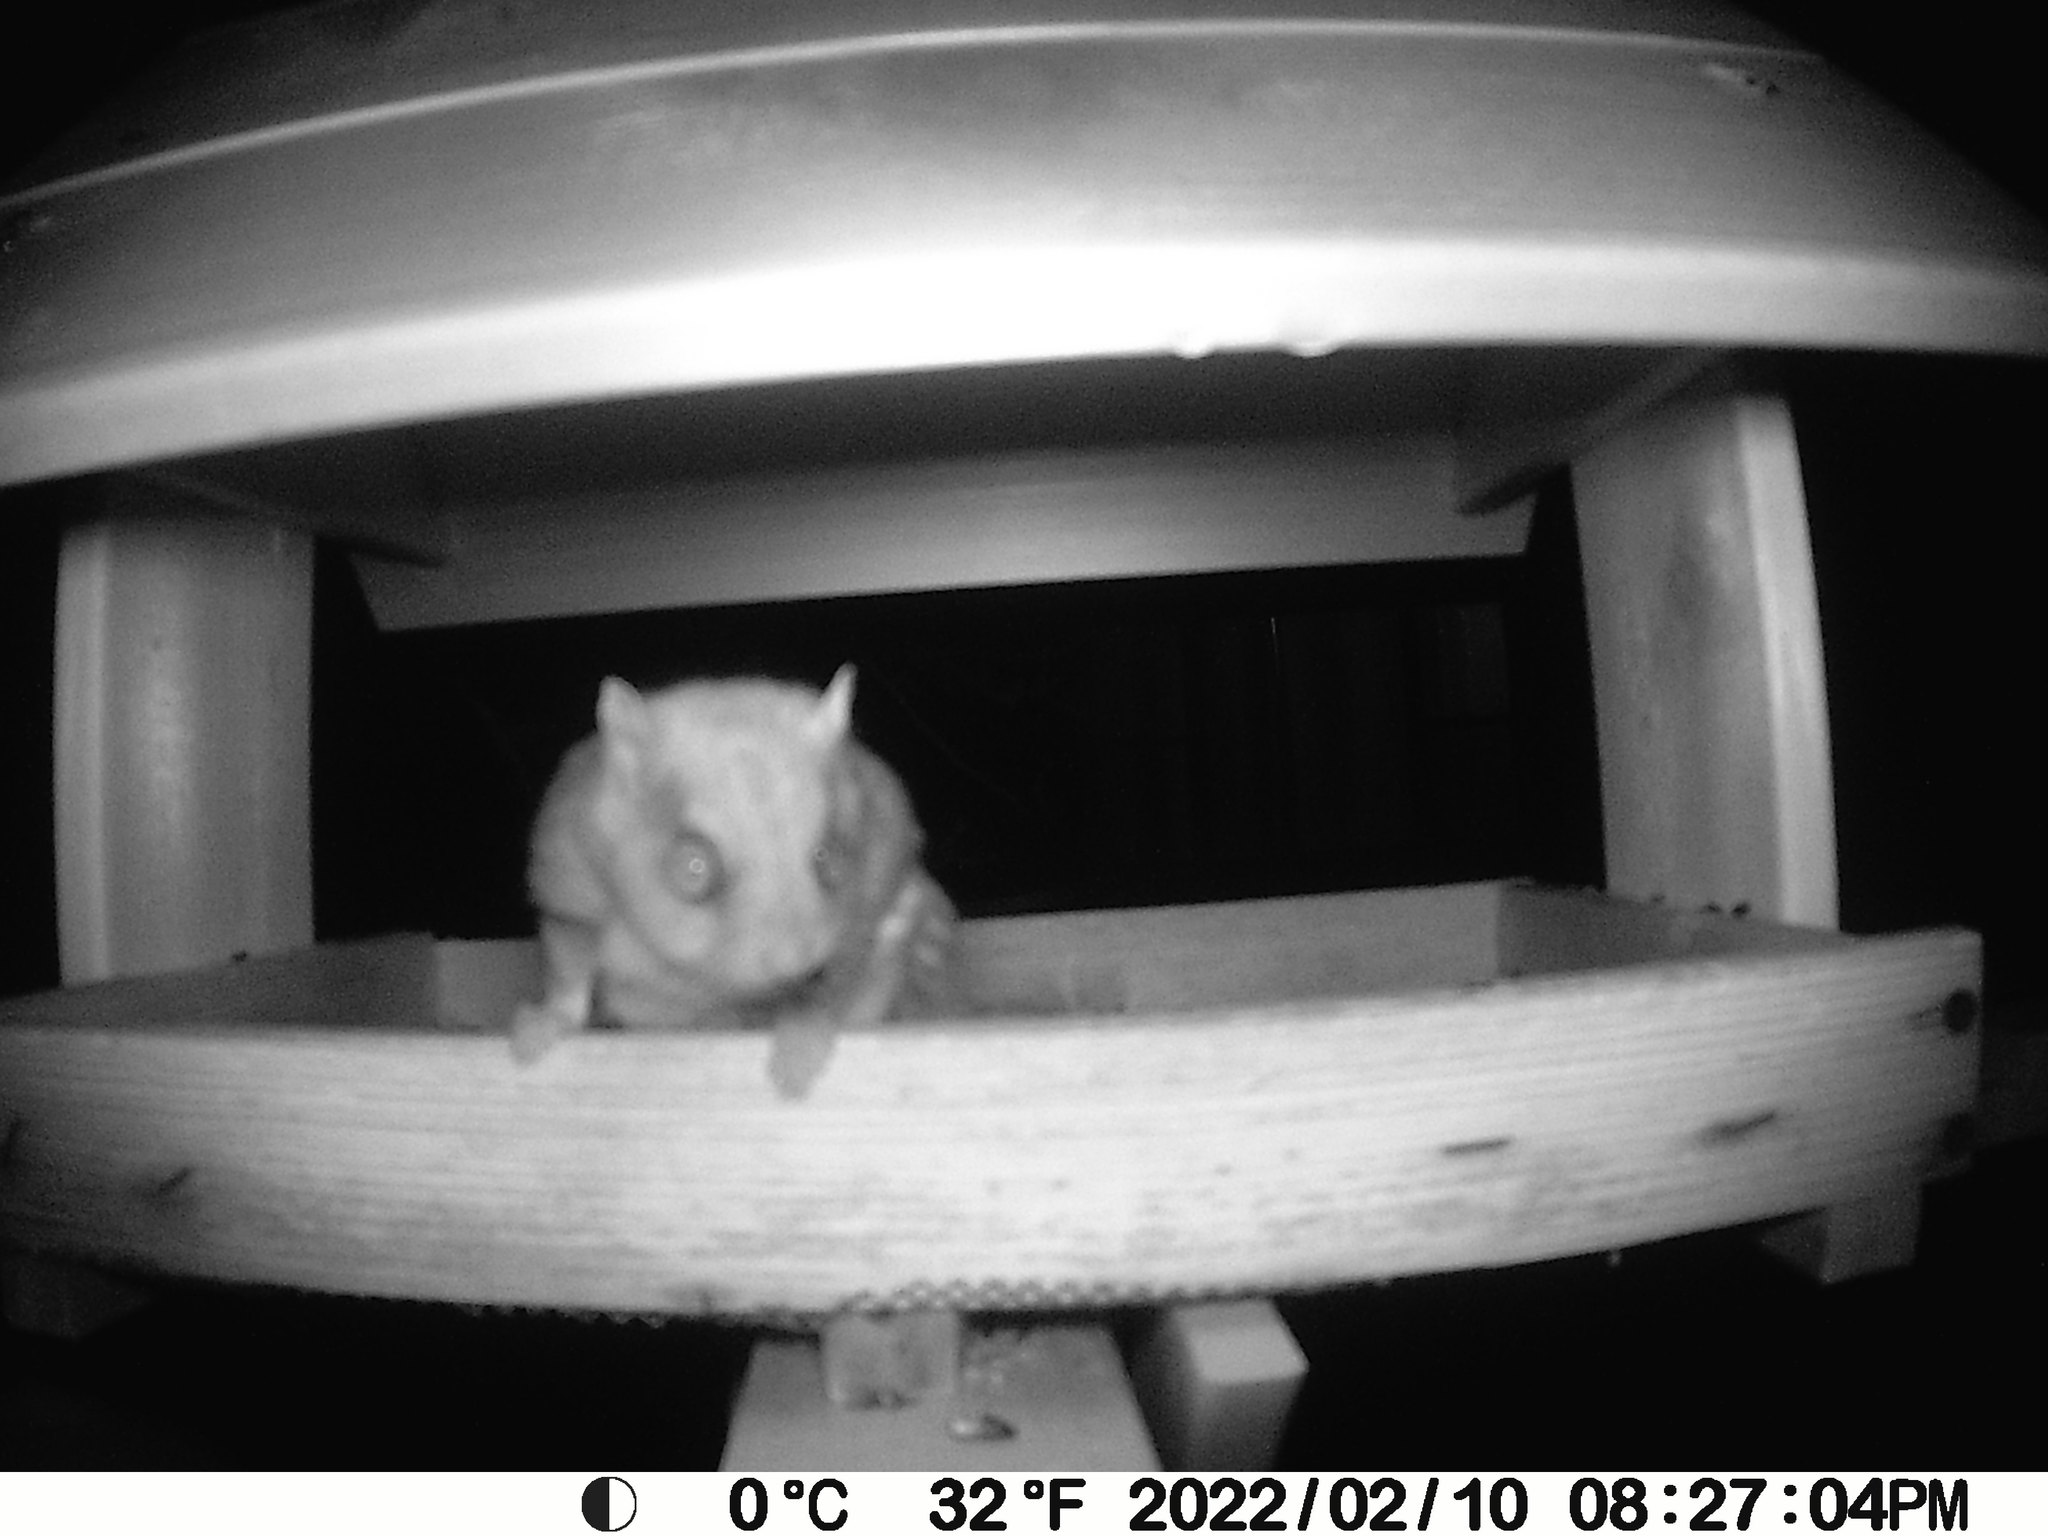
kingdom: Animalia
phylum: Chordata
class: Mammalia
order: Rodentia
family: Sciuridae
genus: Glaucomys
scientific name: Glaucomys sabrinus
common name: Northern flying squirrel
